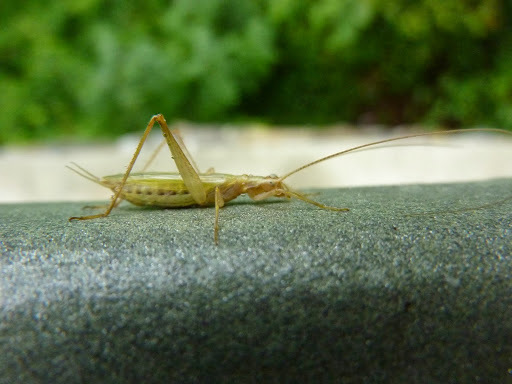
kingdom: Animalia
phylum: Arthropoda
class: Insecta
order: Orthoptera
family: Gryllidae
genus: Oecanthus
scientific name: Oecanthus pellucens
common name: Tree-cricket
